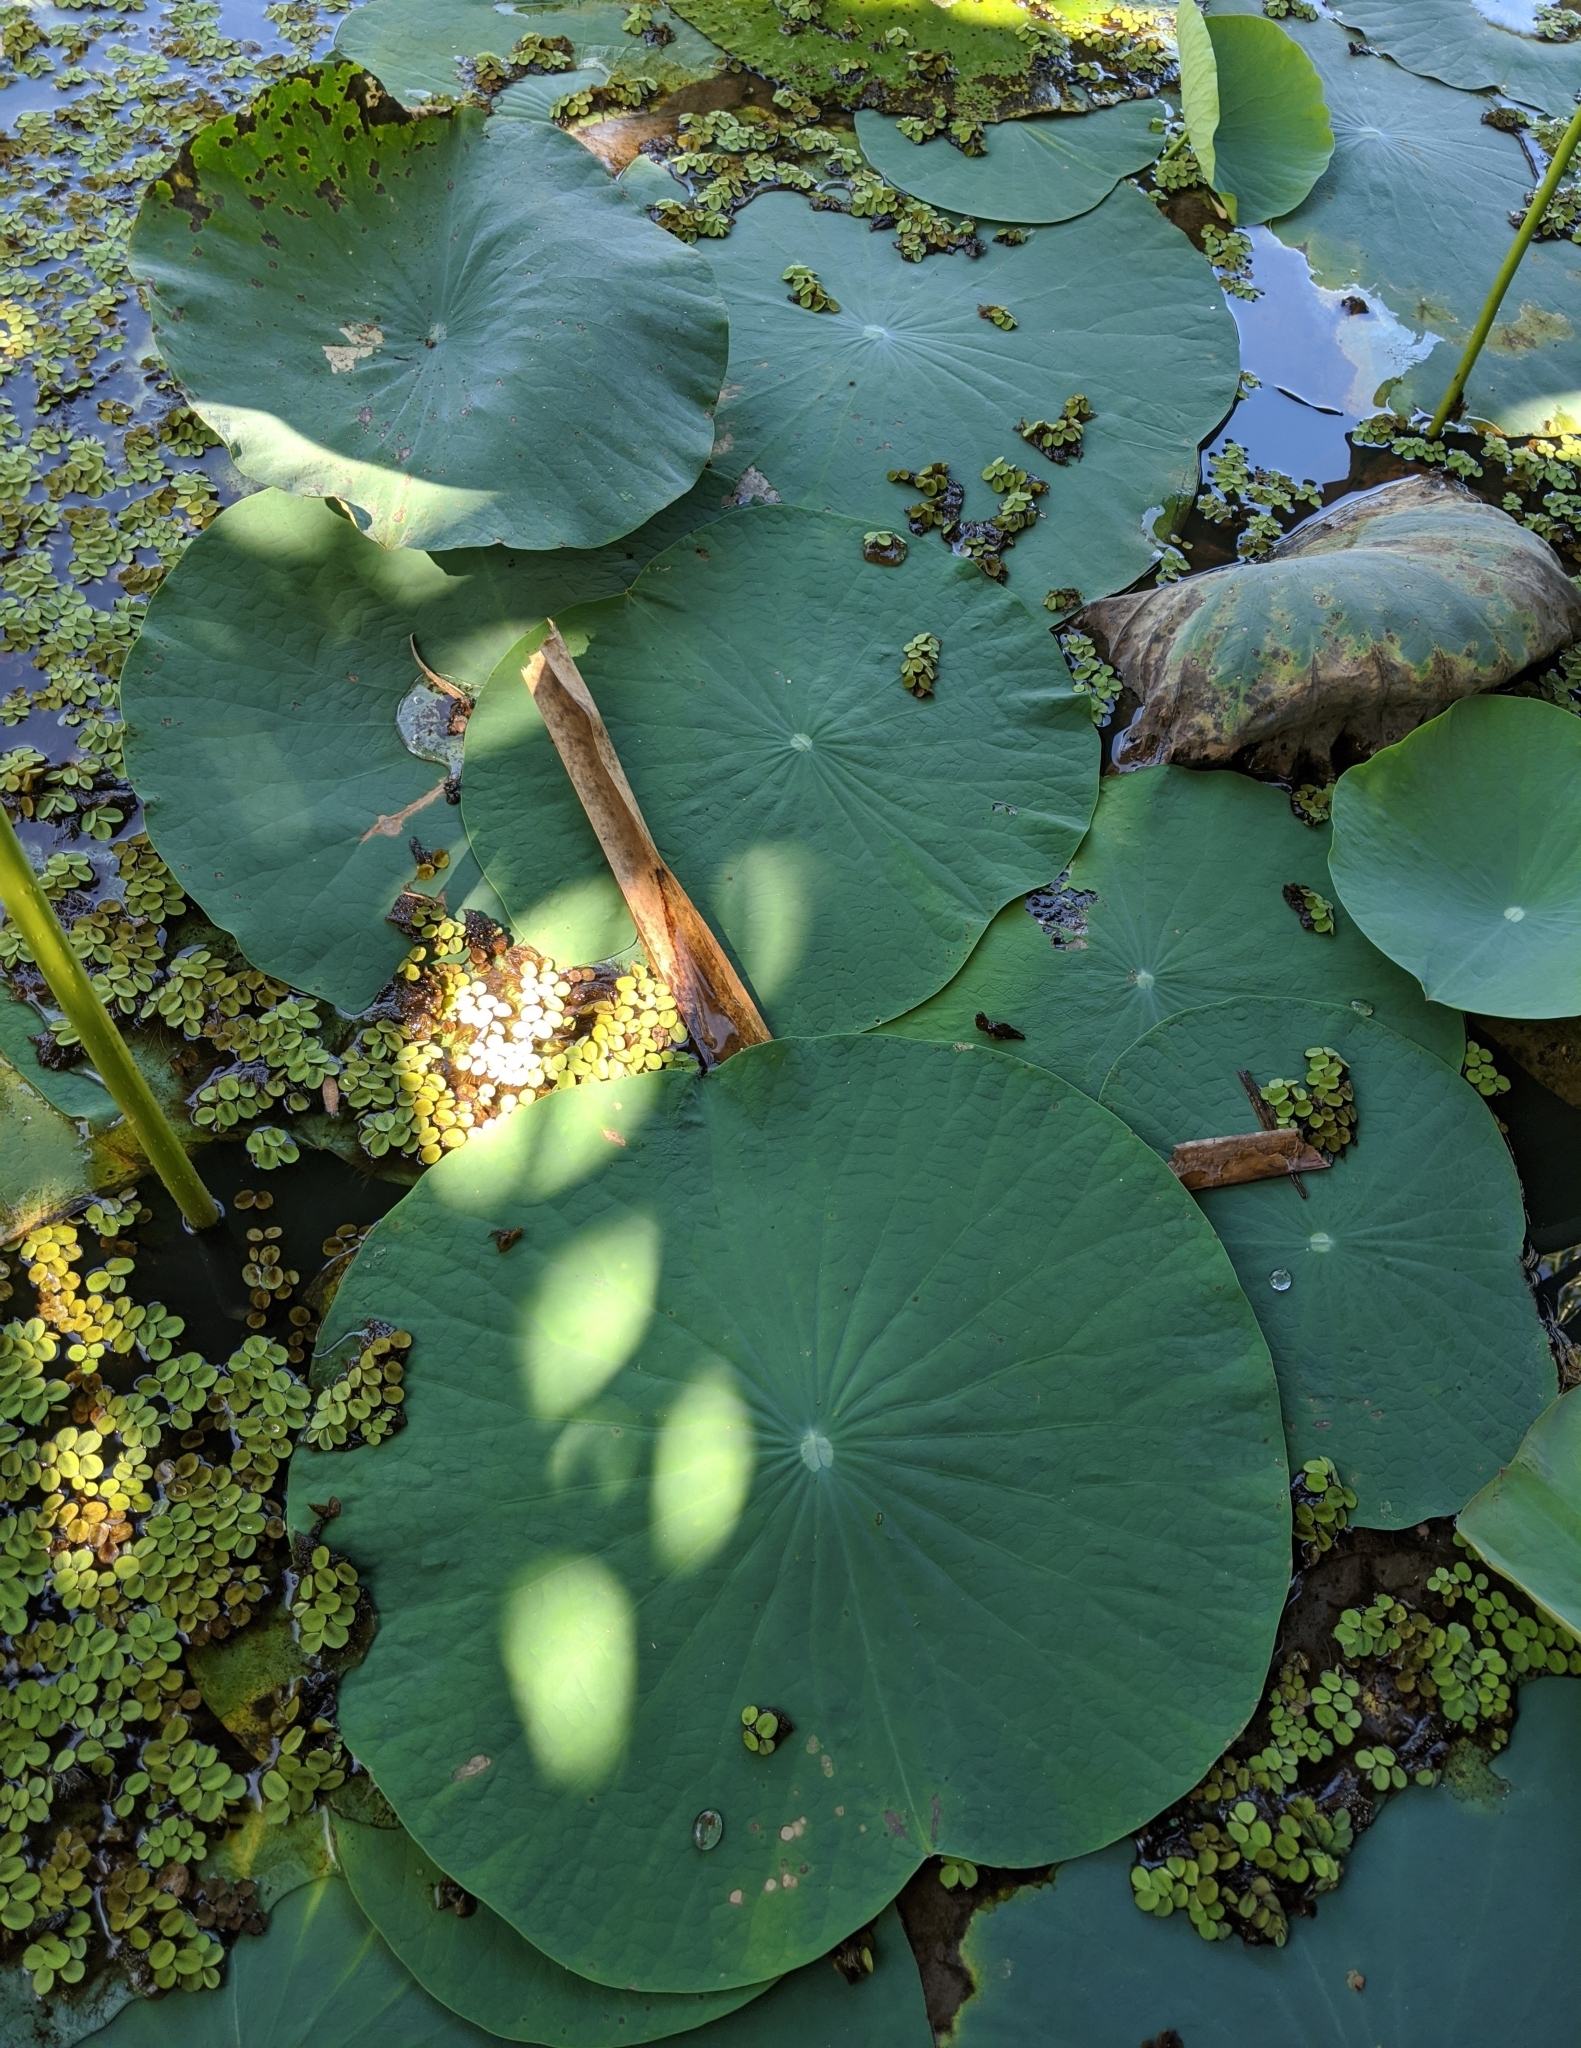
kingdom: Plantae
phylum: Tracheophyta
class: Magnoliopsida
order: Proteales
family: Nelumbonaceae
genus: Nelumbo
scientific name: Nelumbo nucifera
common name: Sacred lotus
